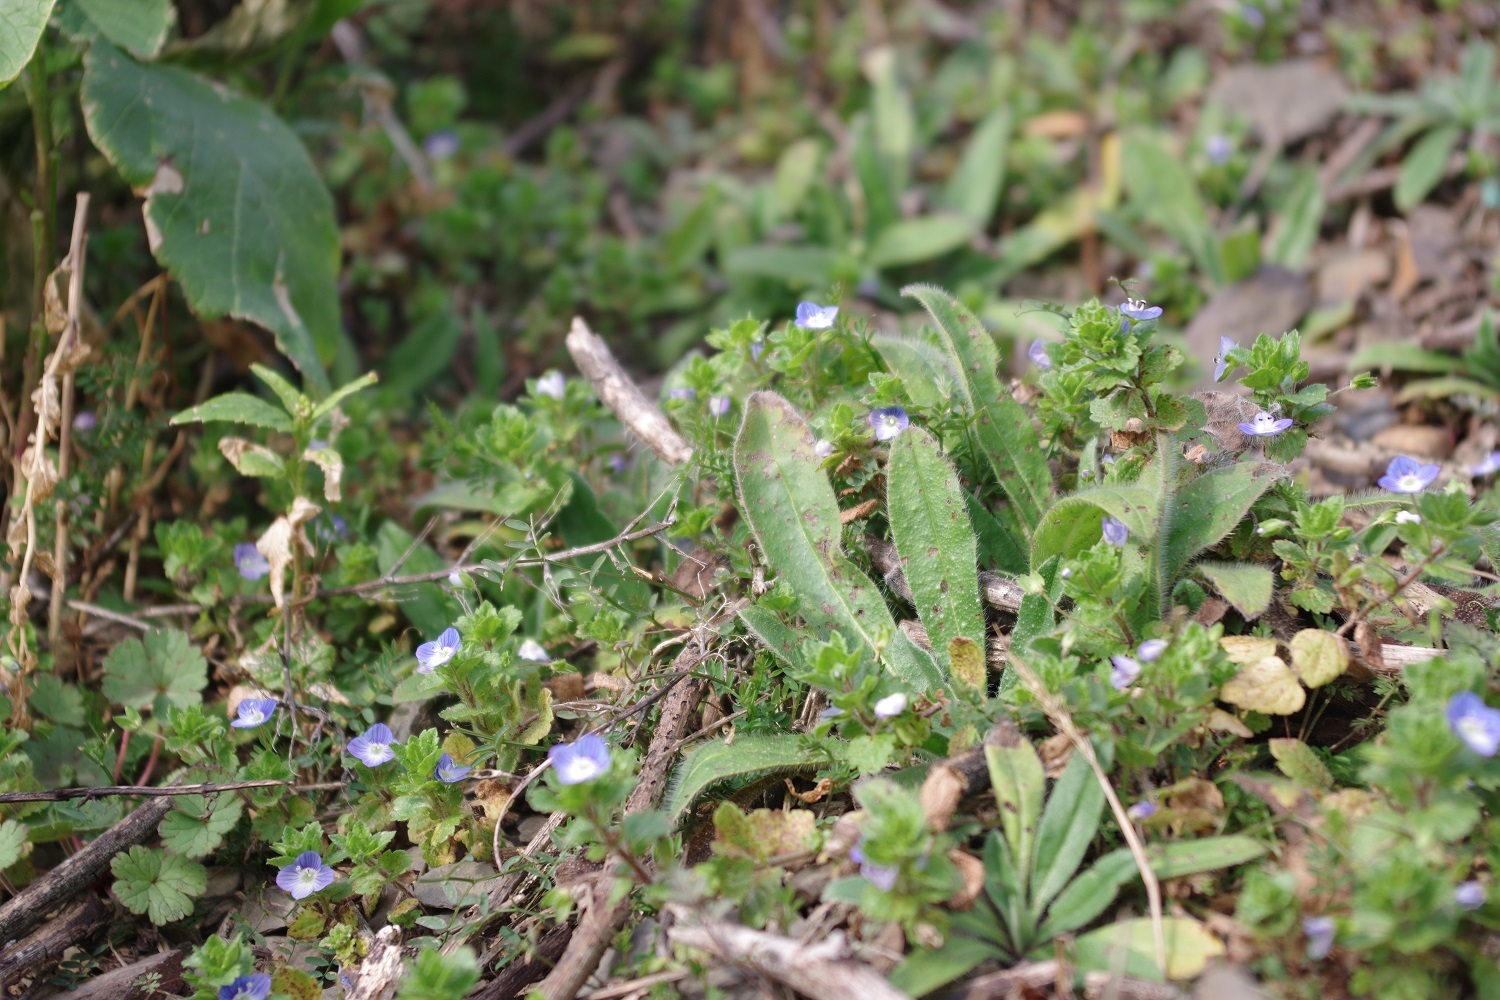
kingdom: Plantae
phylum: Tracheophyta
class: Magnoliopsida
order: Lamiales
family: Plantaginaceae
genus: Veronica
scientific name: Veronica persica
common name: Common field-speedwell
